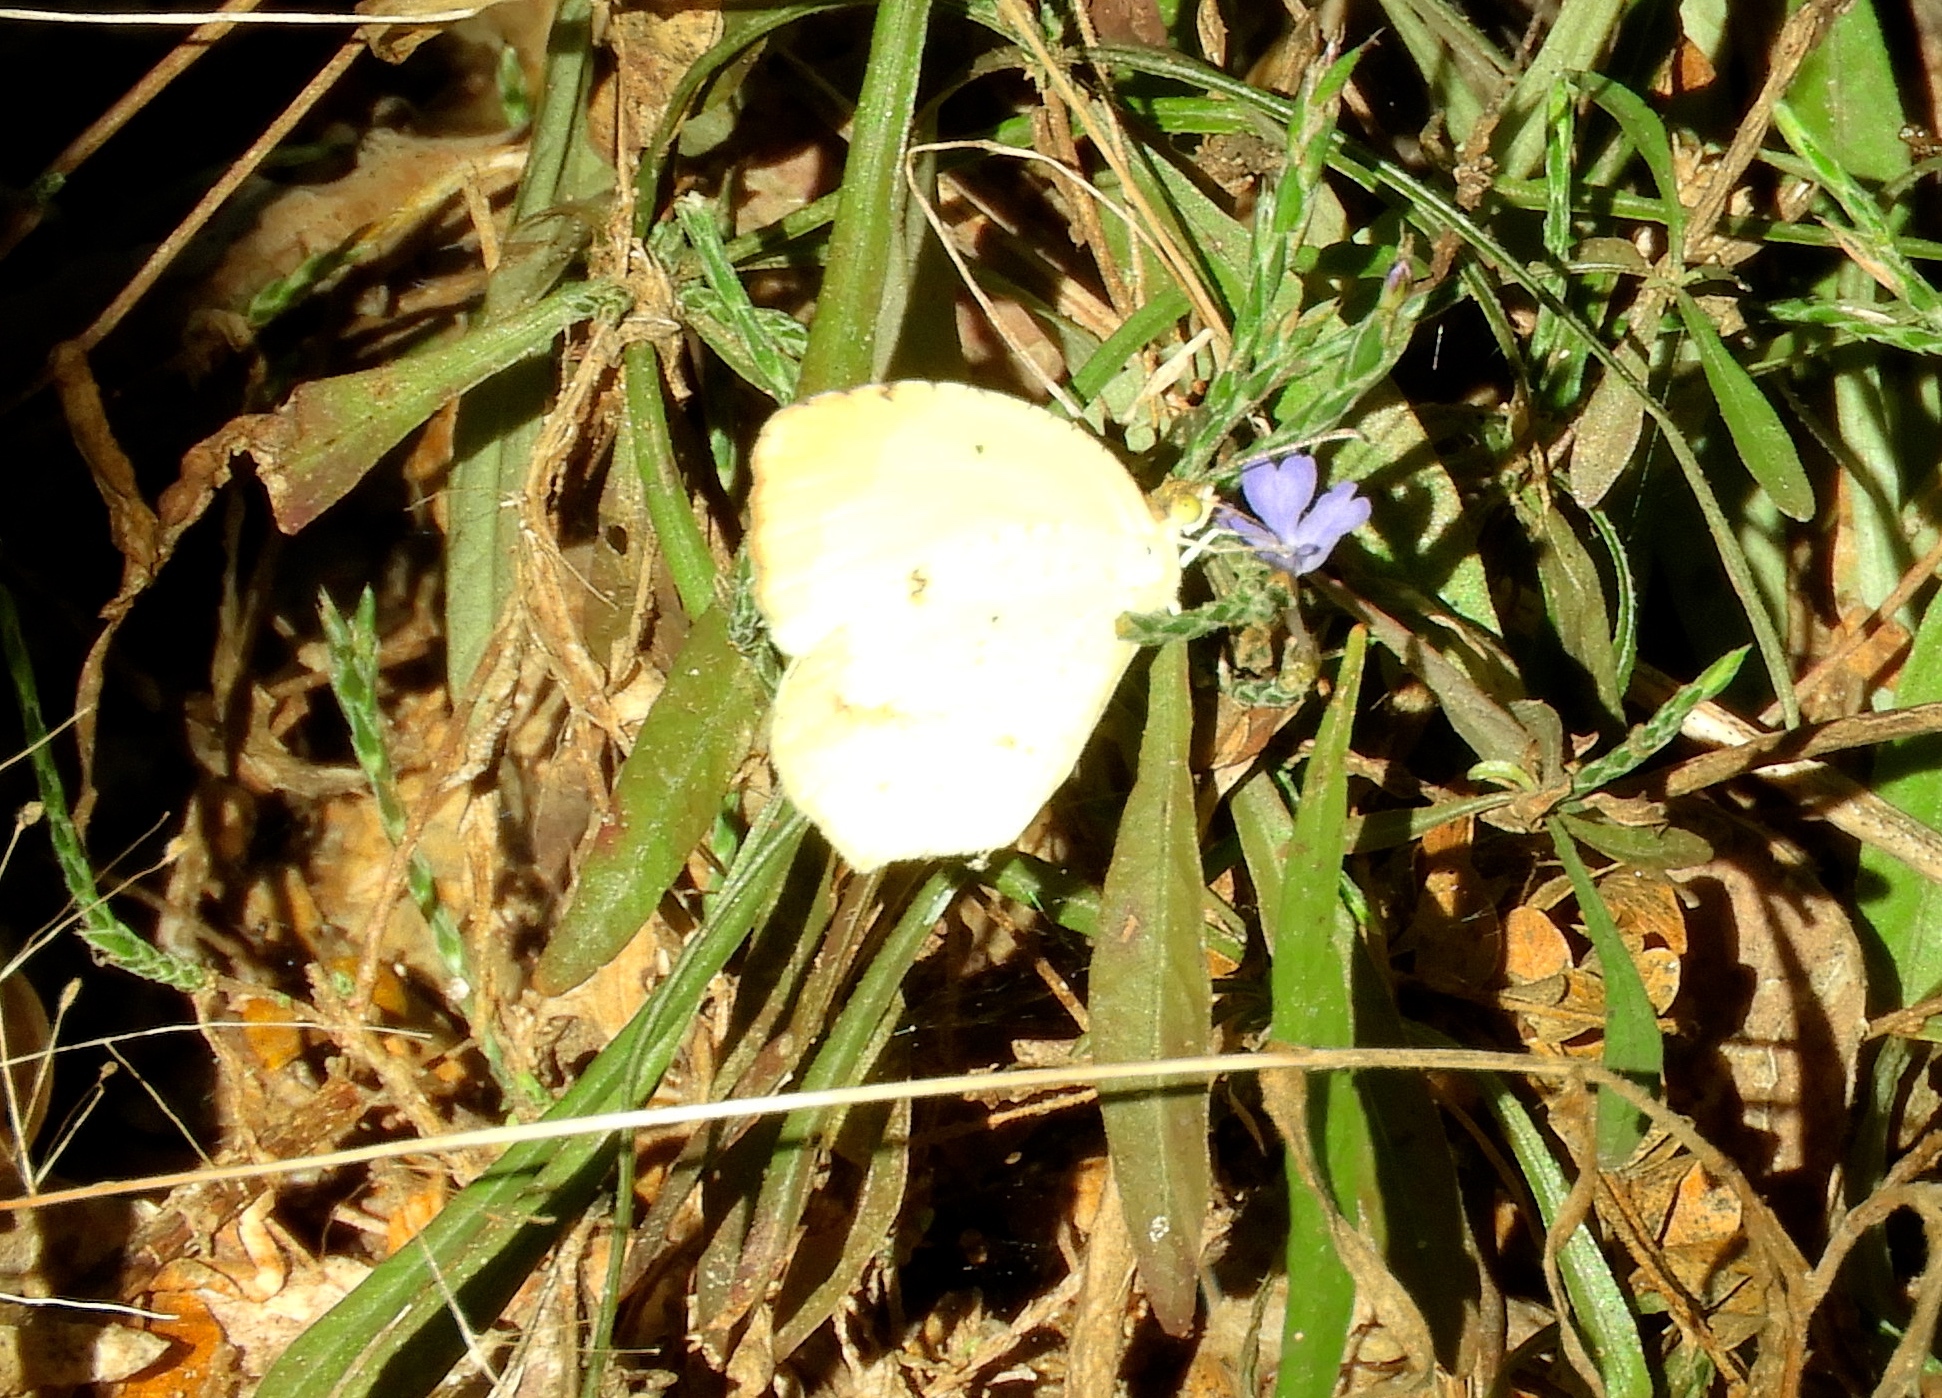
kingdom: Animalia
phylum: Arthropoda
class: Insecta
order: Lepidoptera
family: Pieridae
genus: Abaeis
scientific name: Abaeis nicippe
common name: Sleepy orange
